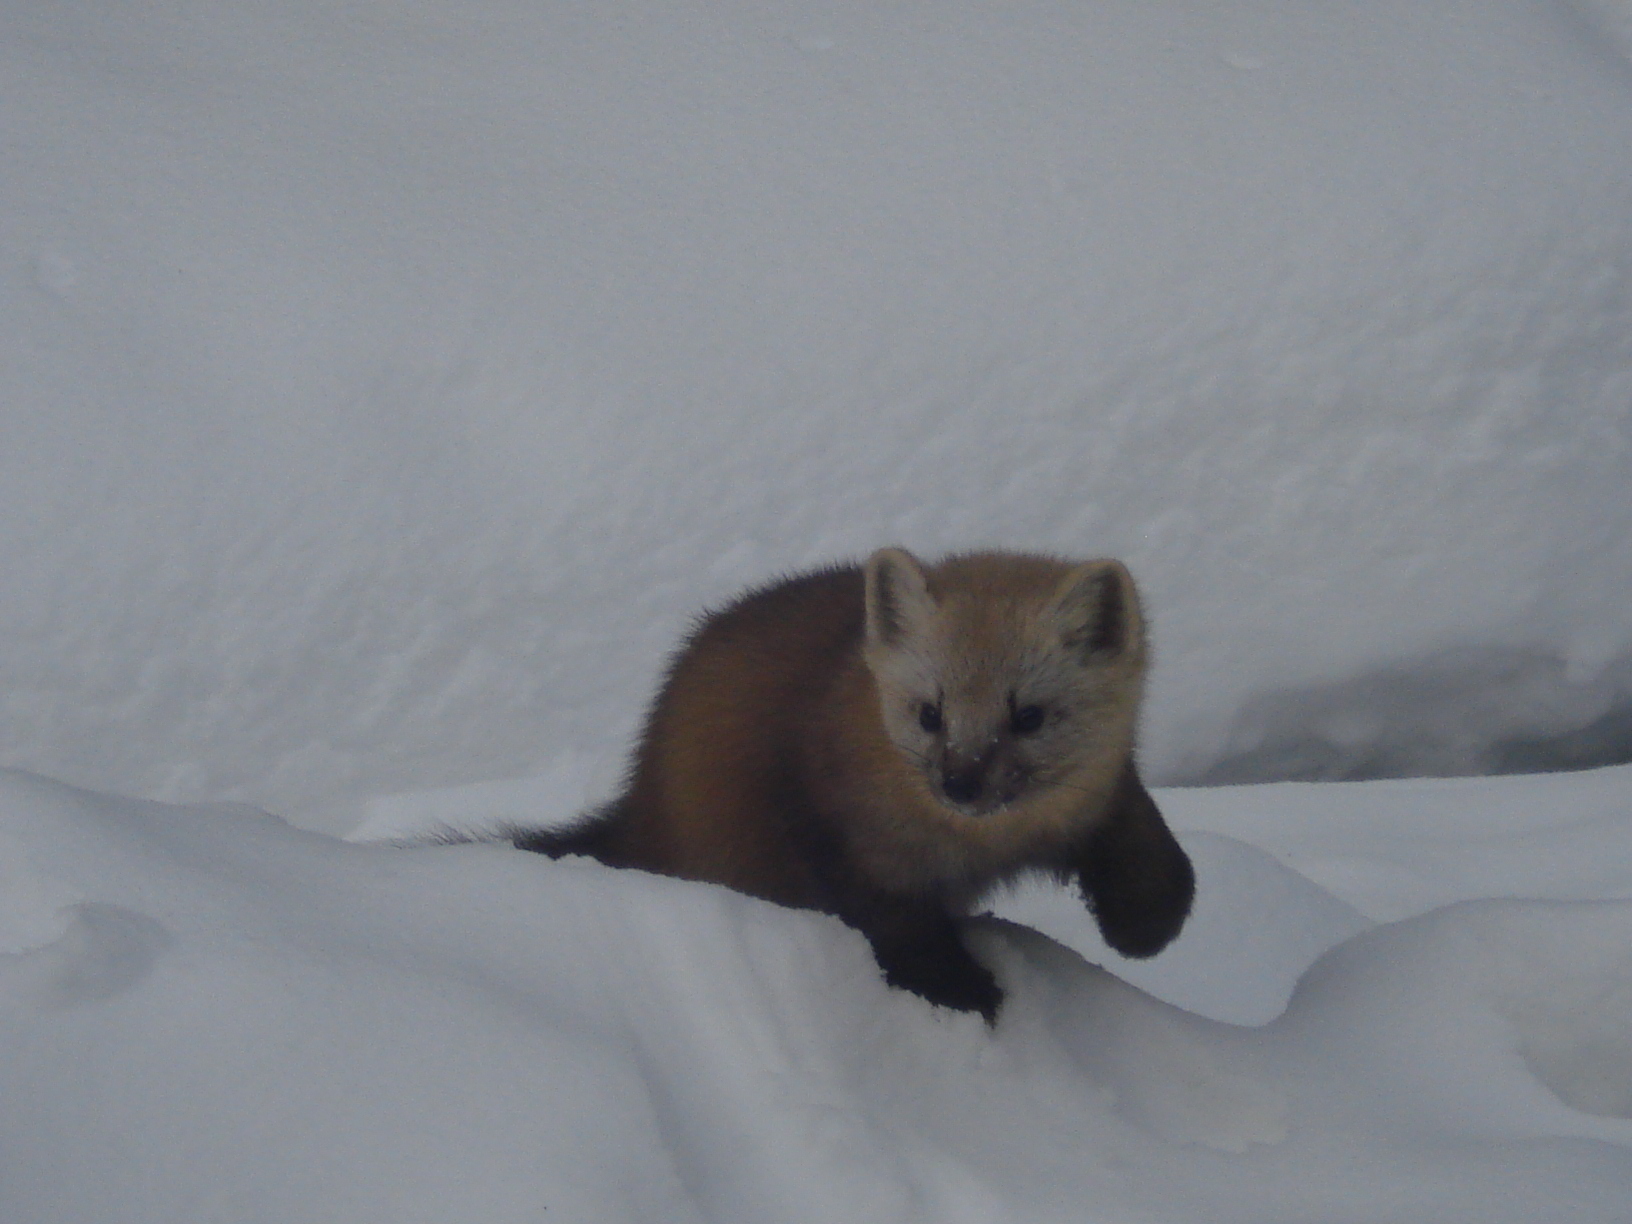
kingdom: Animalia
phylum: Chordata
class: Mammalia
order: Carnivora
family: Mustelidae
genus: Martes
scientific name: Martes zibellina
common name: Sable
